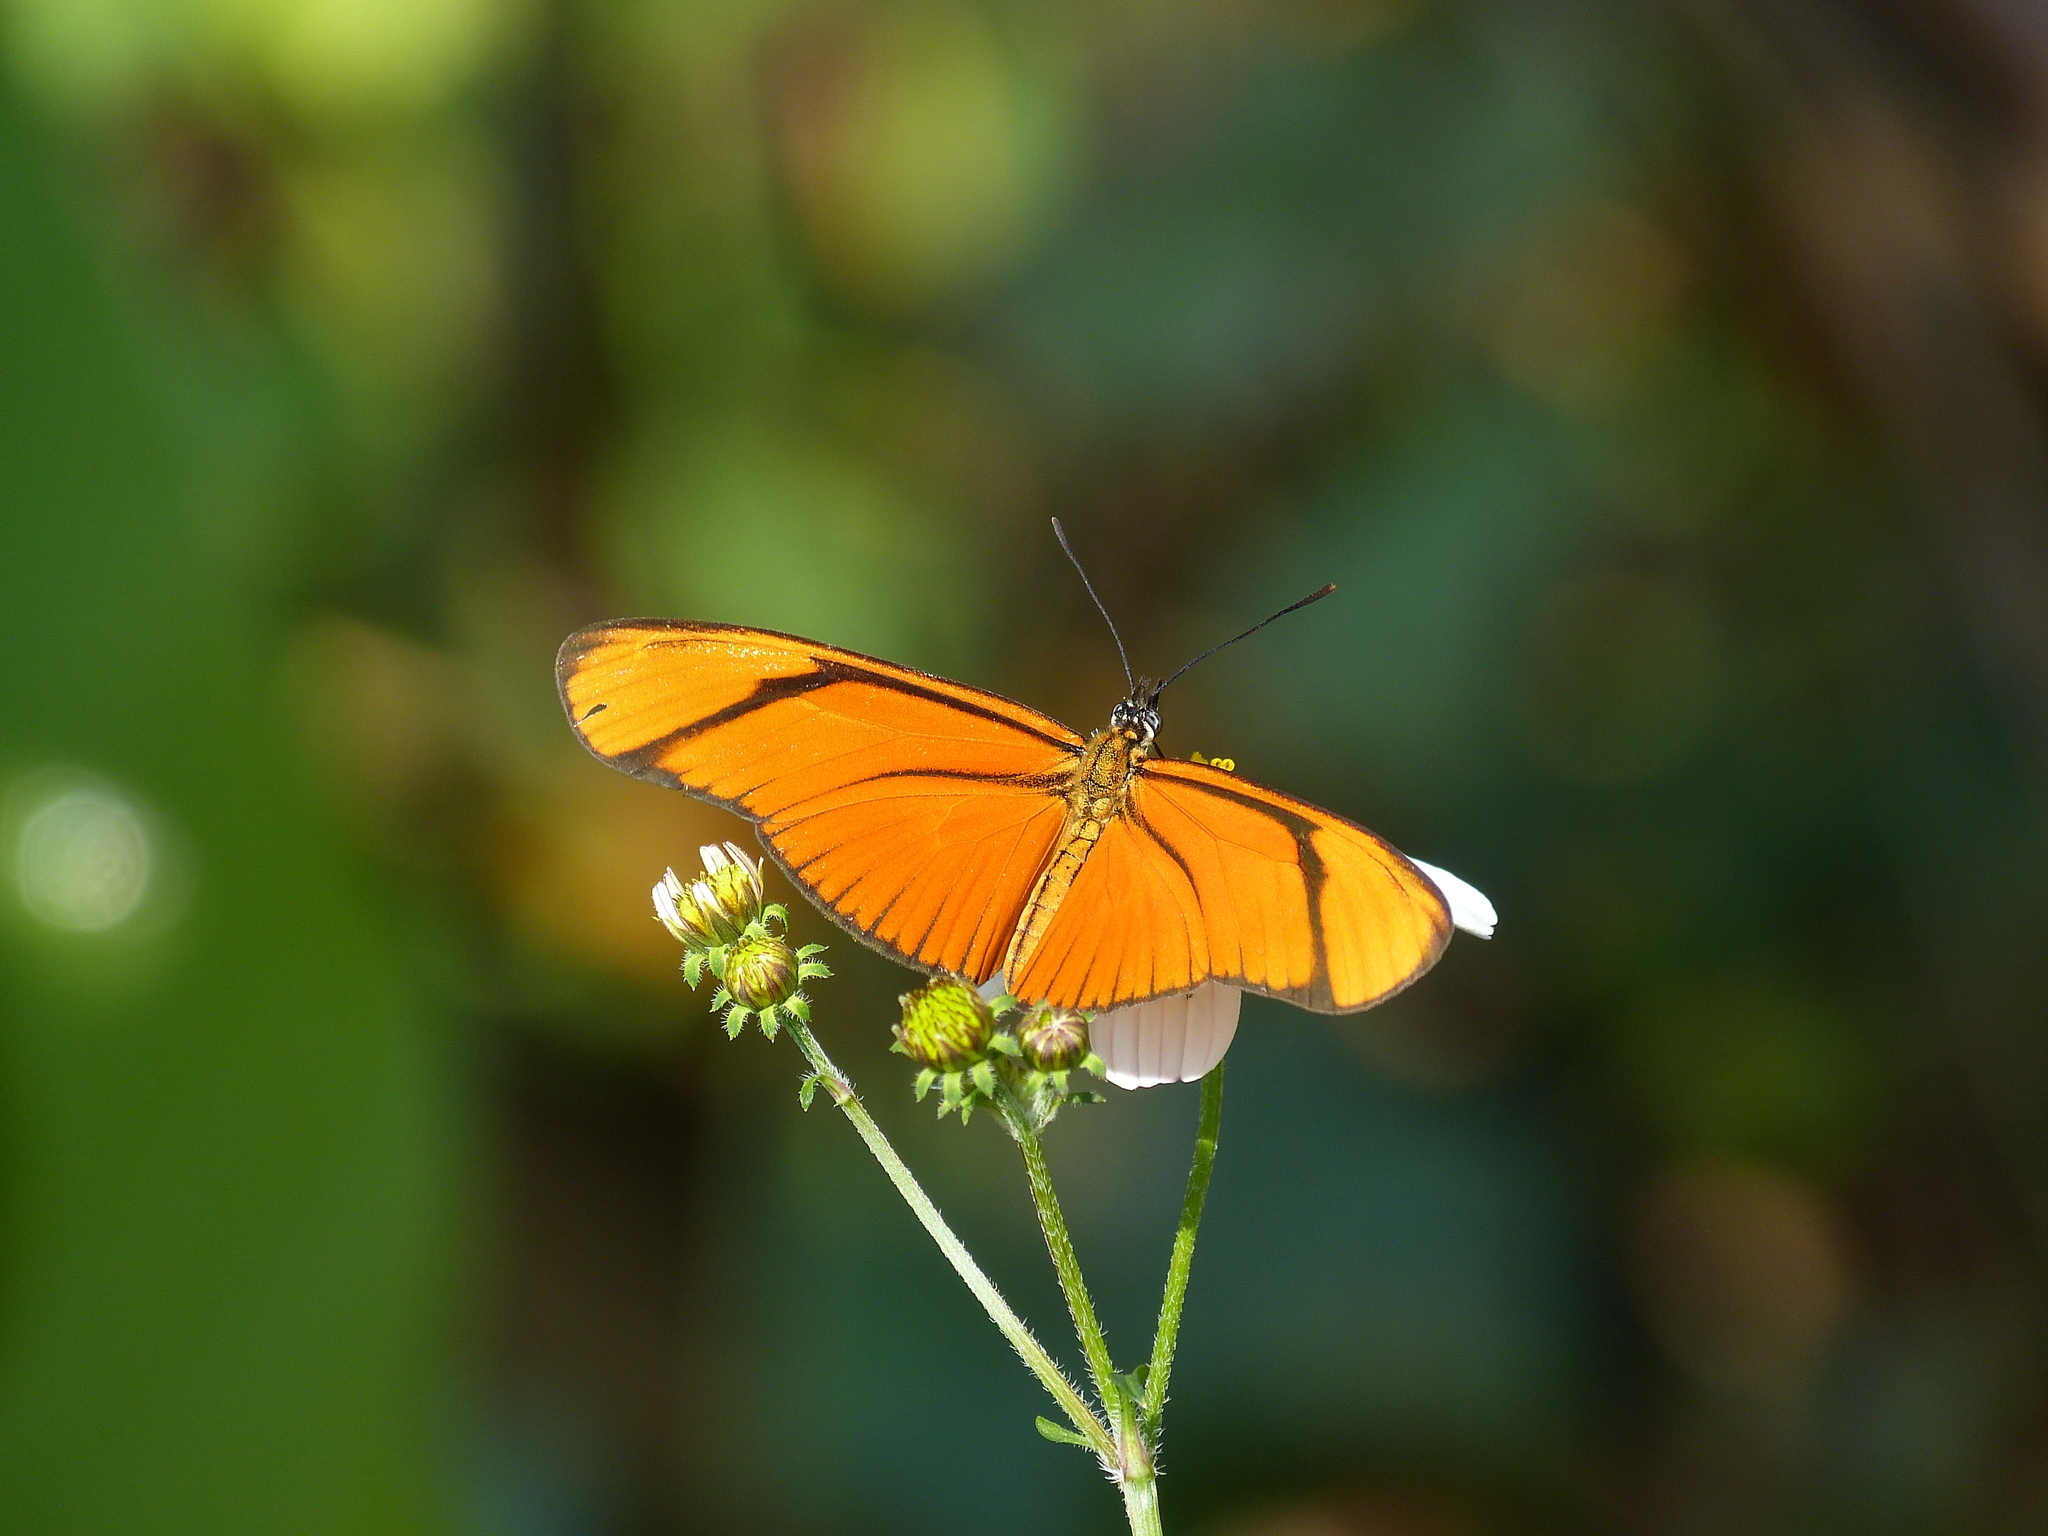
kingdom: Animalia
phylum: Arthropoda
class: Insecta
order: Lepidoptera
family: Nymphalidae
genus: Heliconius
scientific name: Heliconius aliphera
